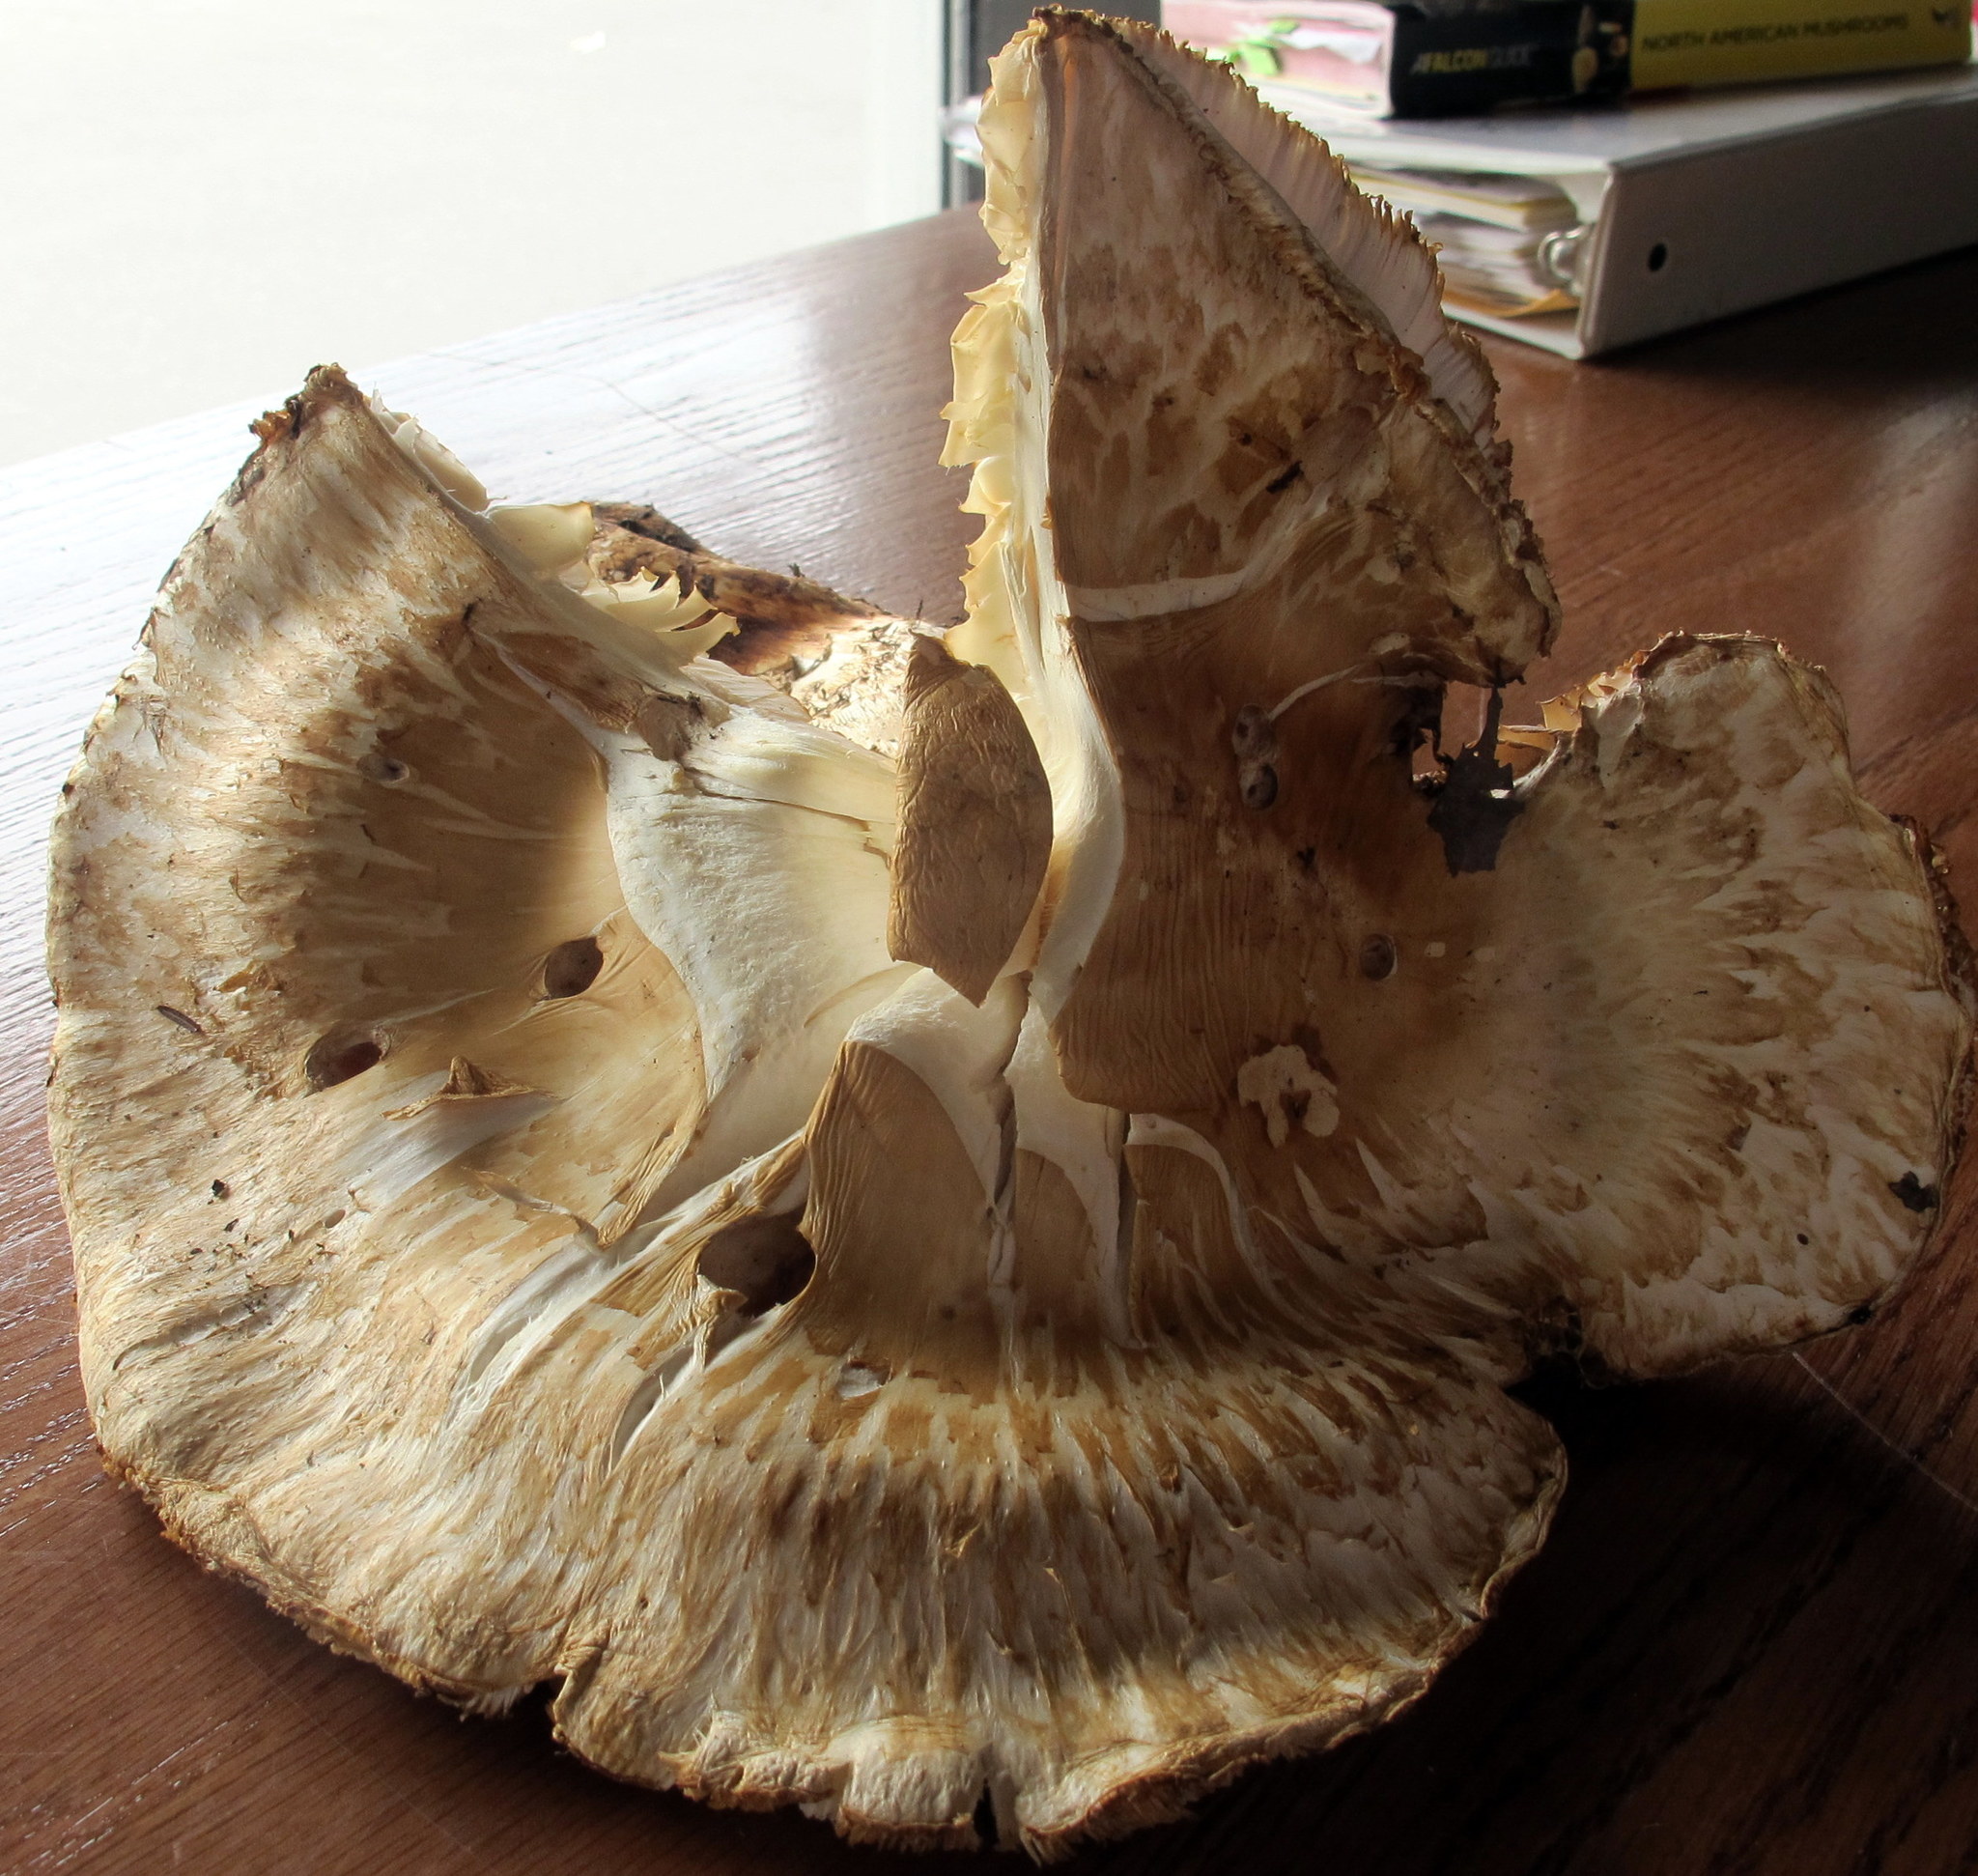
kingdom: Fungi
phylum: Basidiomycota
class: Agaricomycetes
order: Agaricales
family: Tricholomataceae
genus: Tricholoma
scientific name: Tricholoma magnivelare
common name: American matsutake
